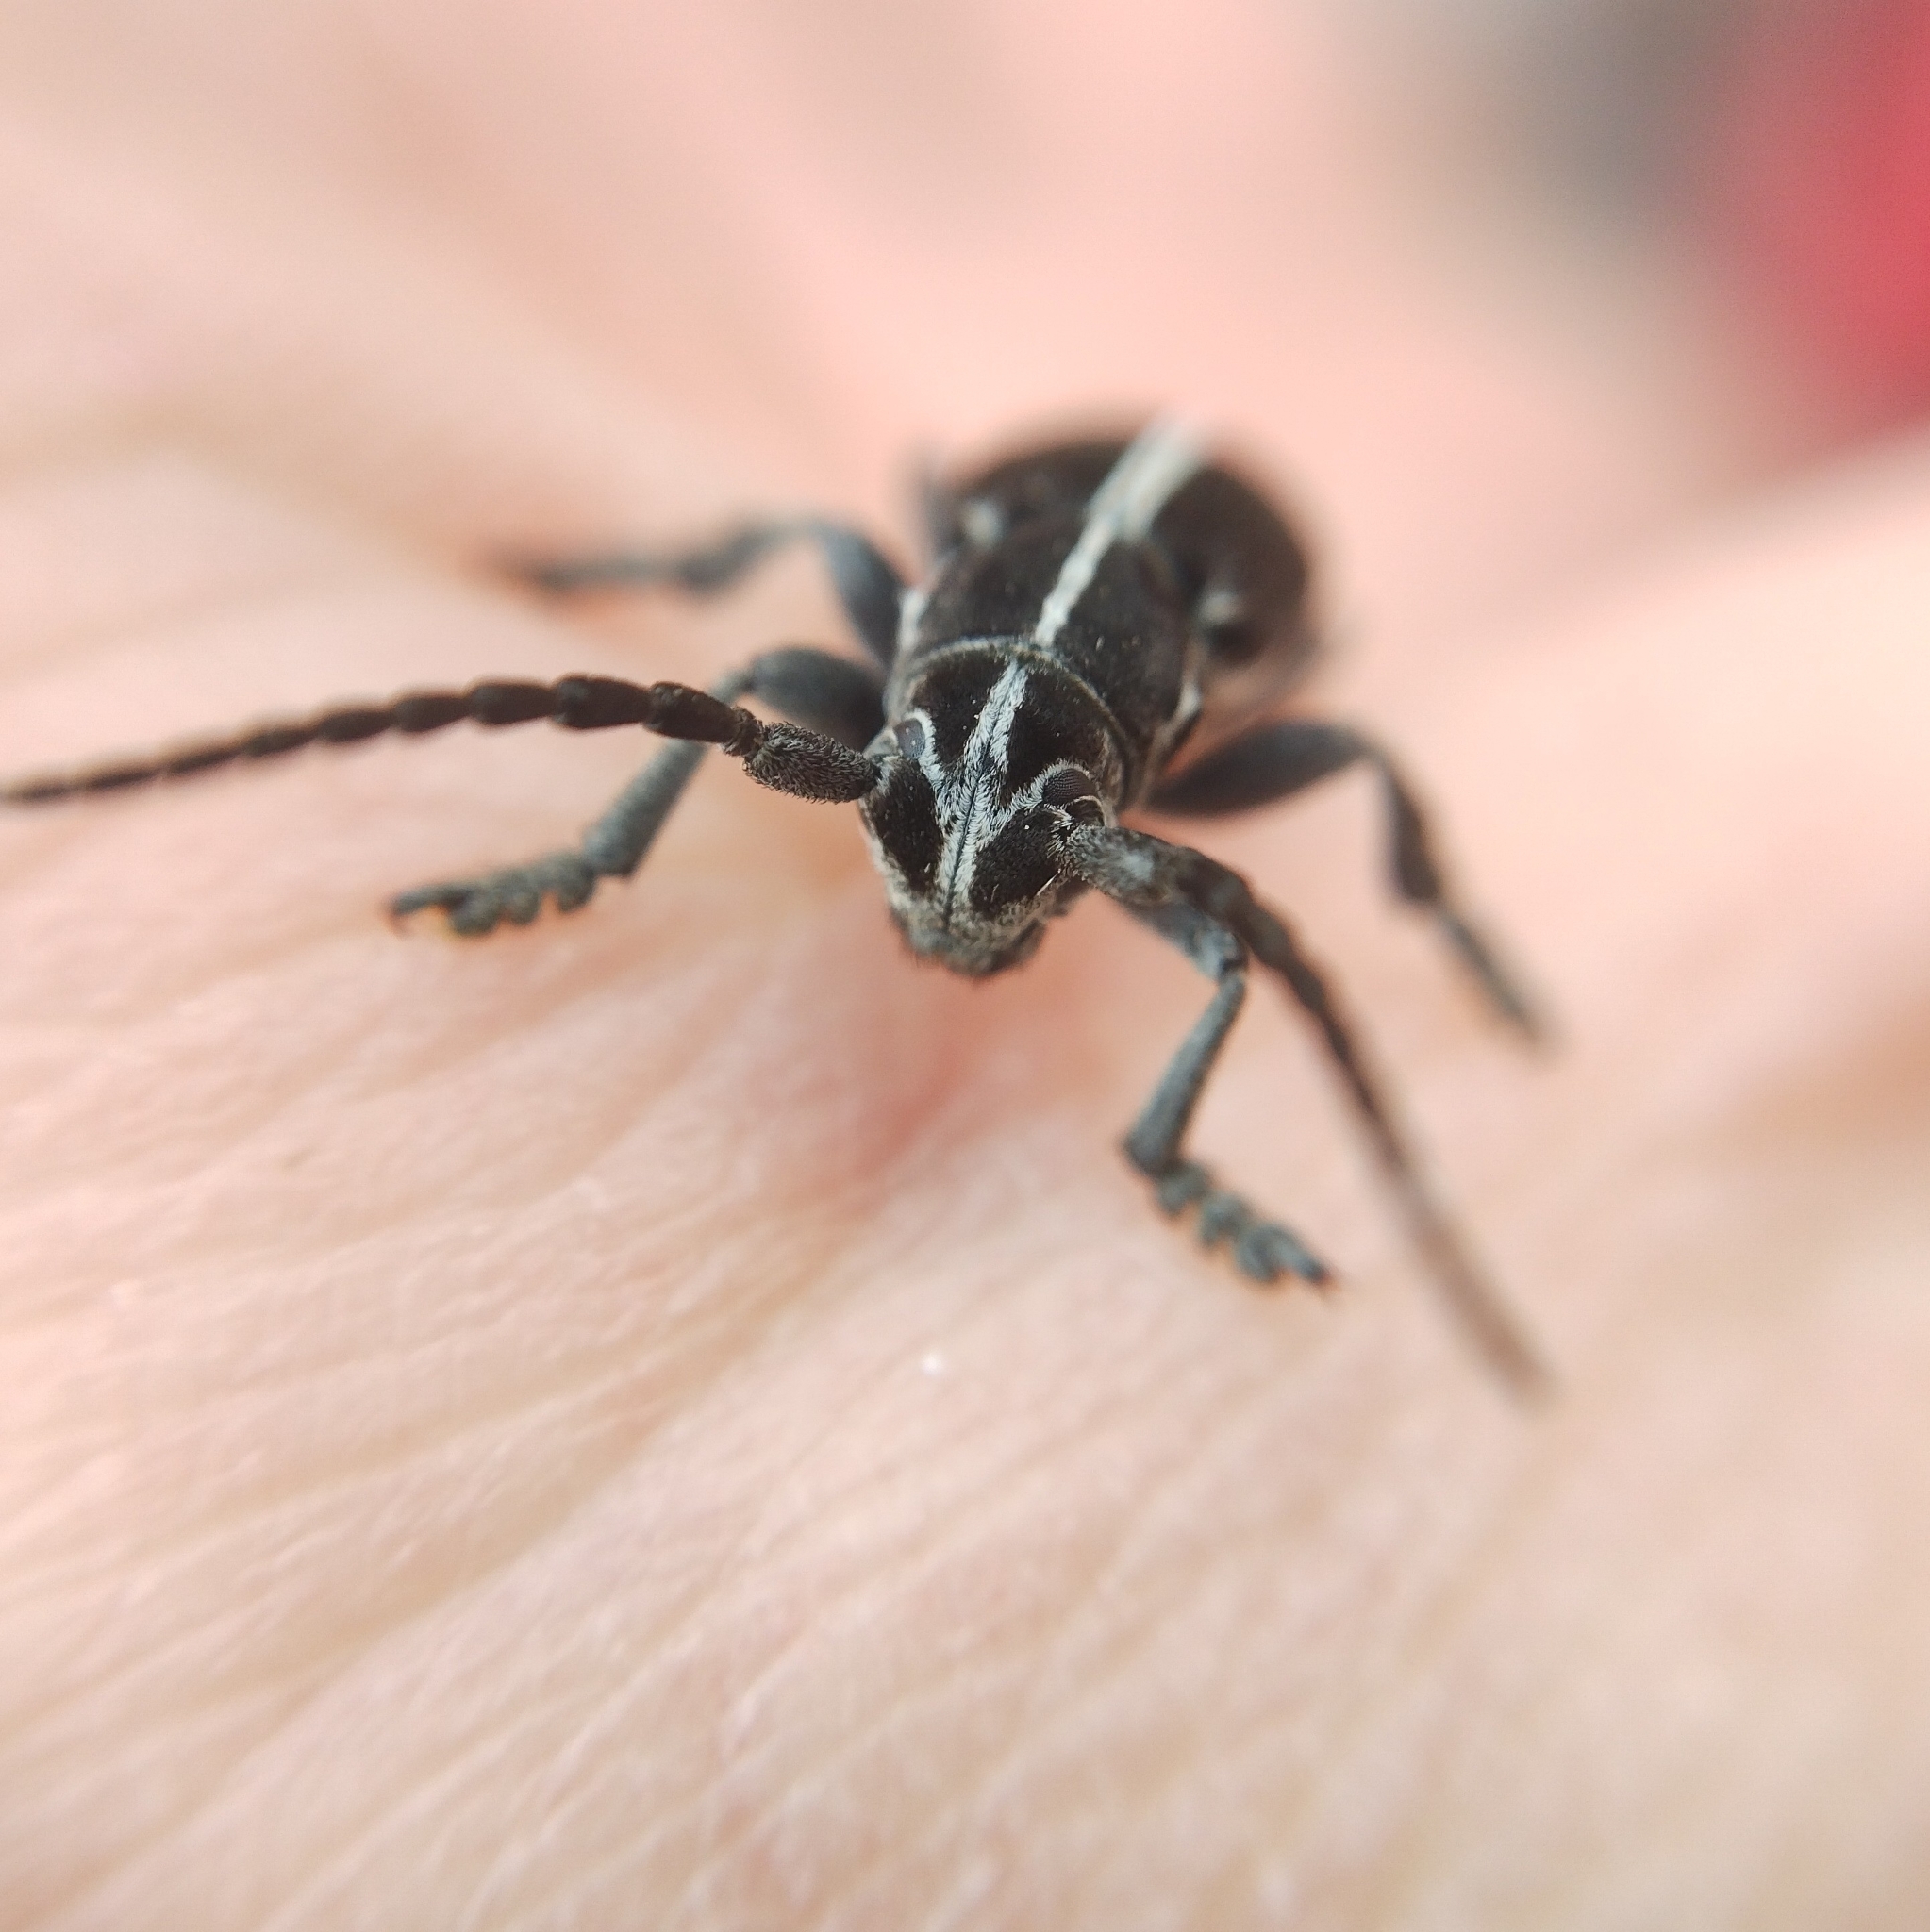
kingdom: Animalia
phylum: Arthropoda
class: Insecta
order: Coleoptera
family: Cerambycidae
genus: Dorcadion
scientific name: Dorcadion axillare
